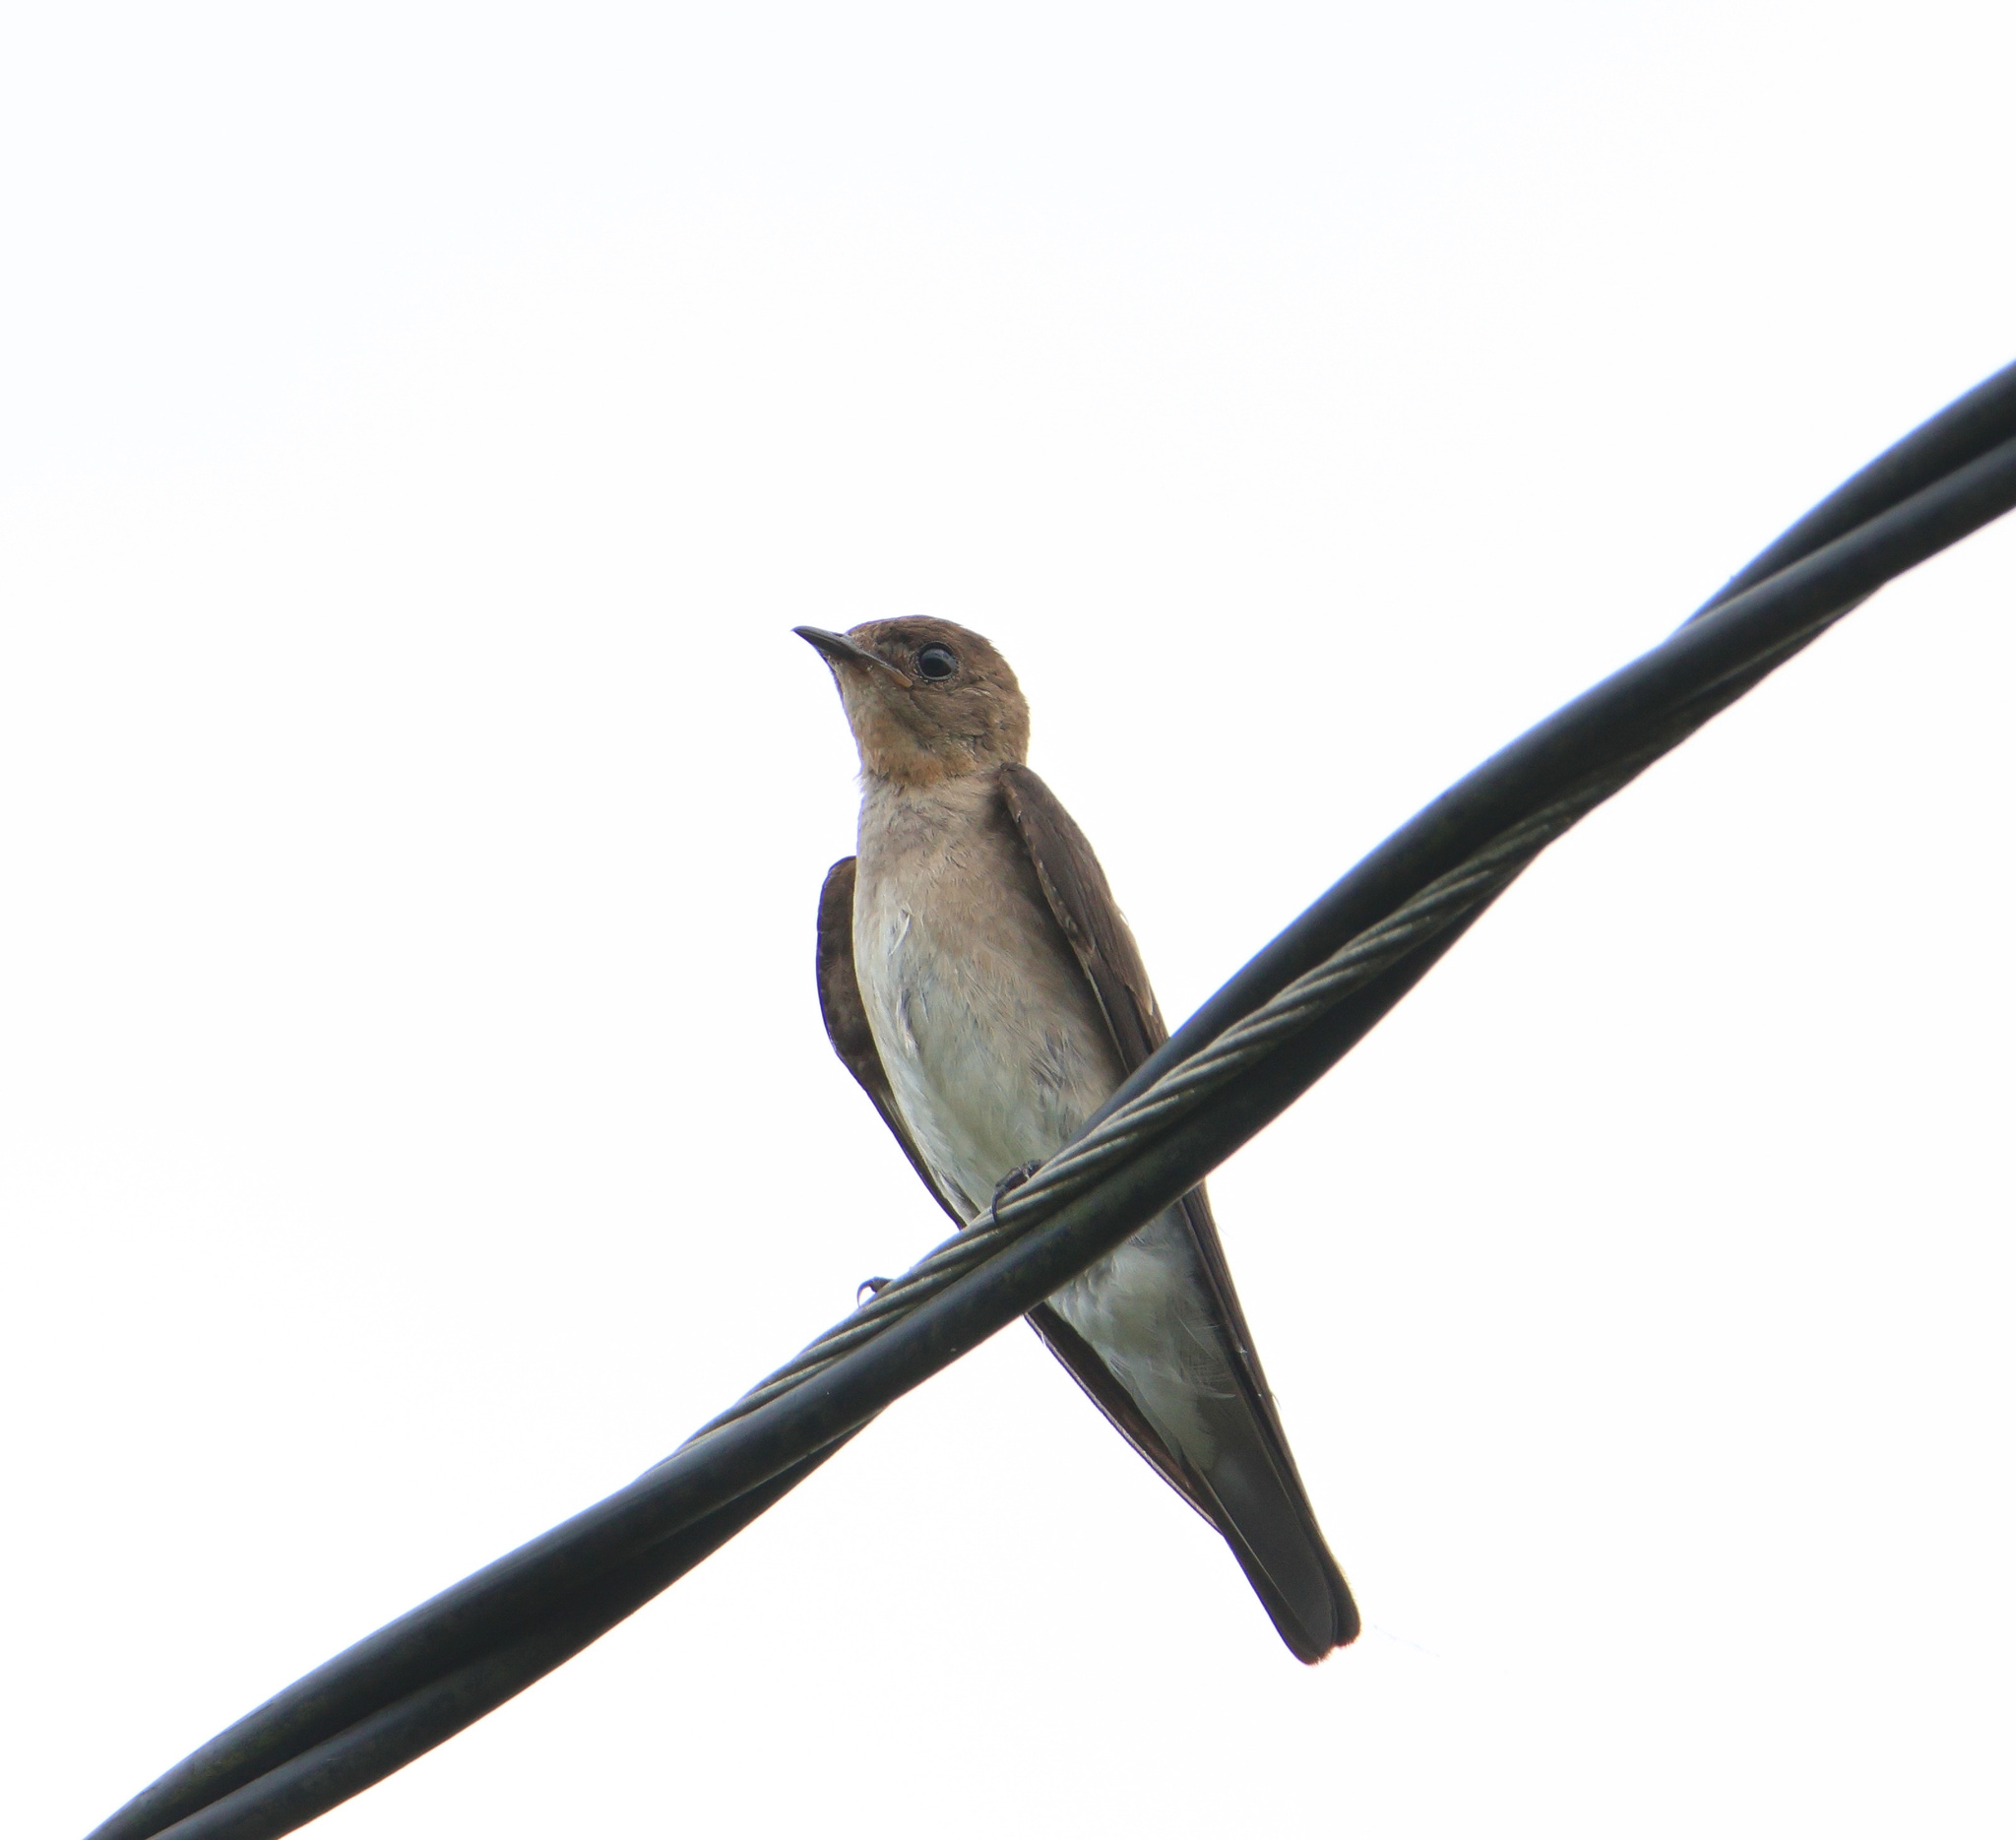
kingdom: Animalia
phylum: Chordata
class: Aves
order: Passeriformes
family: Hirundinidae
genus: Stelgidopteryx
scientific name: Stelgidopteryx ruficollis
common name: Southern rough-winged swallow
